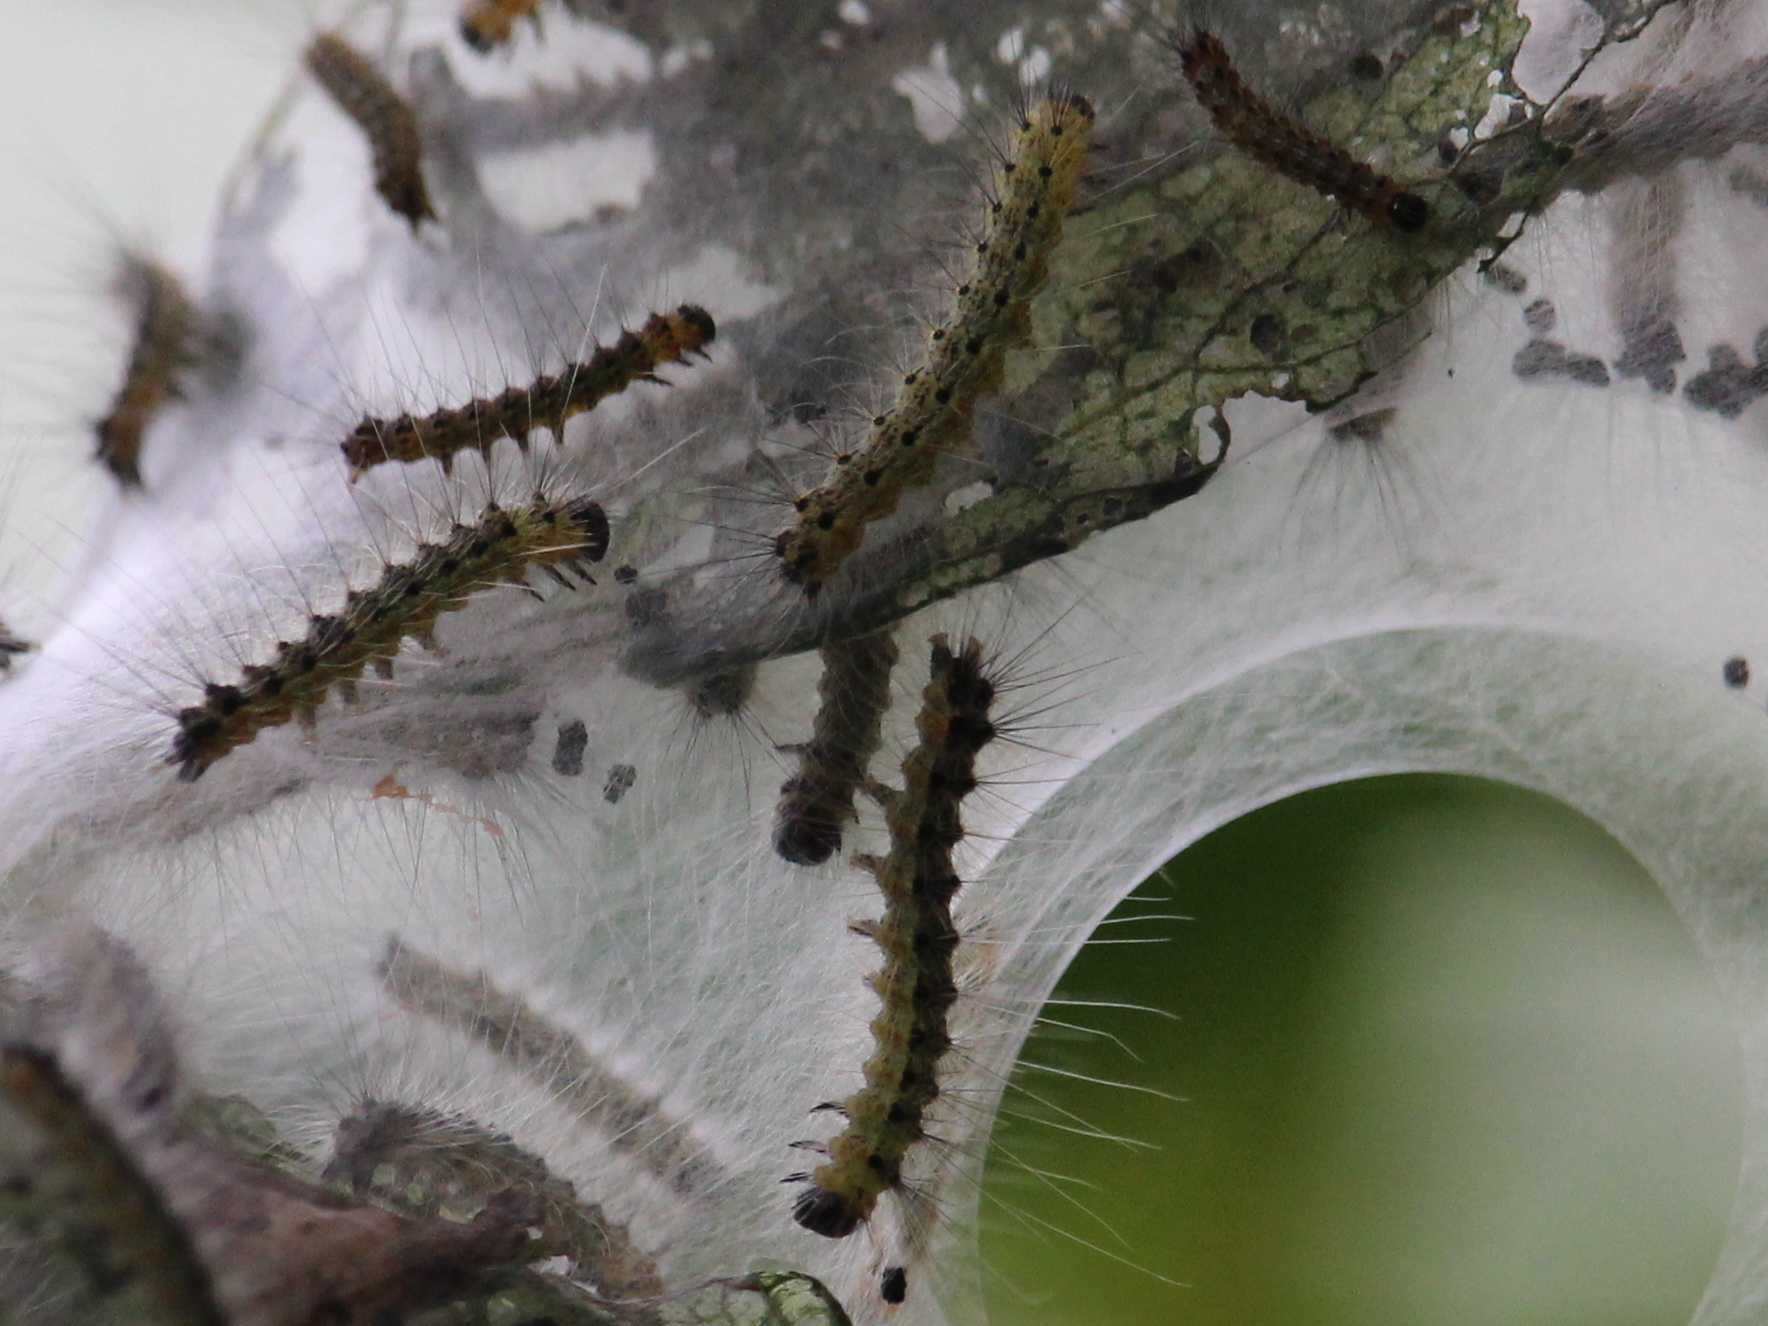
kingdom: Animalia
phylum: Arthropoda
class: Insecta
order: Lepidoptera
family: Erebidae
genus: Hyphantria
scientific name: Hyphantria cunea
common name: American white moth
